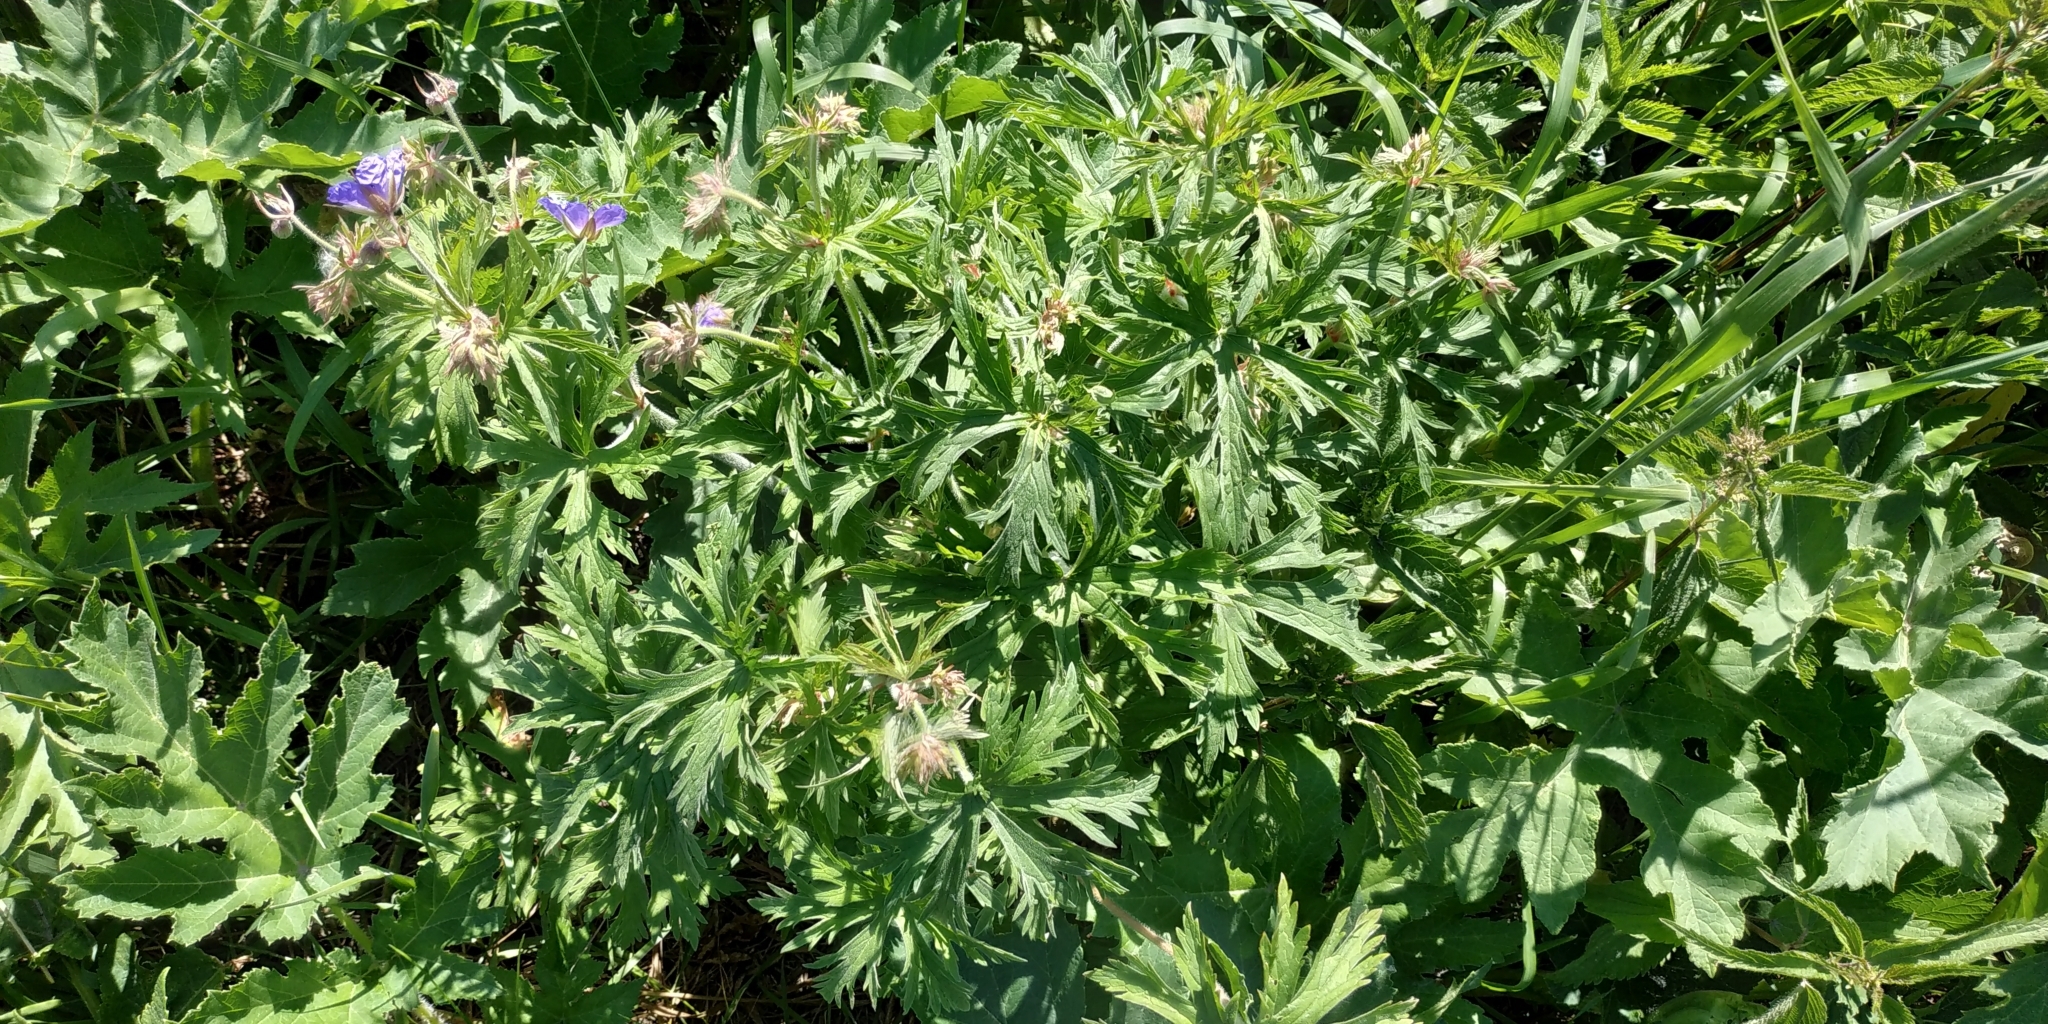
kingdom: Plantae
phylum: Tracheophyta
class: Magnoliopsida
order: Geraniales
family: Geraniaceae
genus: Geranium
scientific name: Geranium pratense
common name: Meadow crane's-bill
